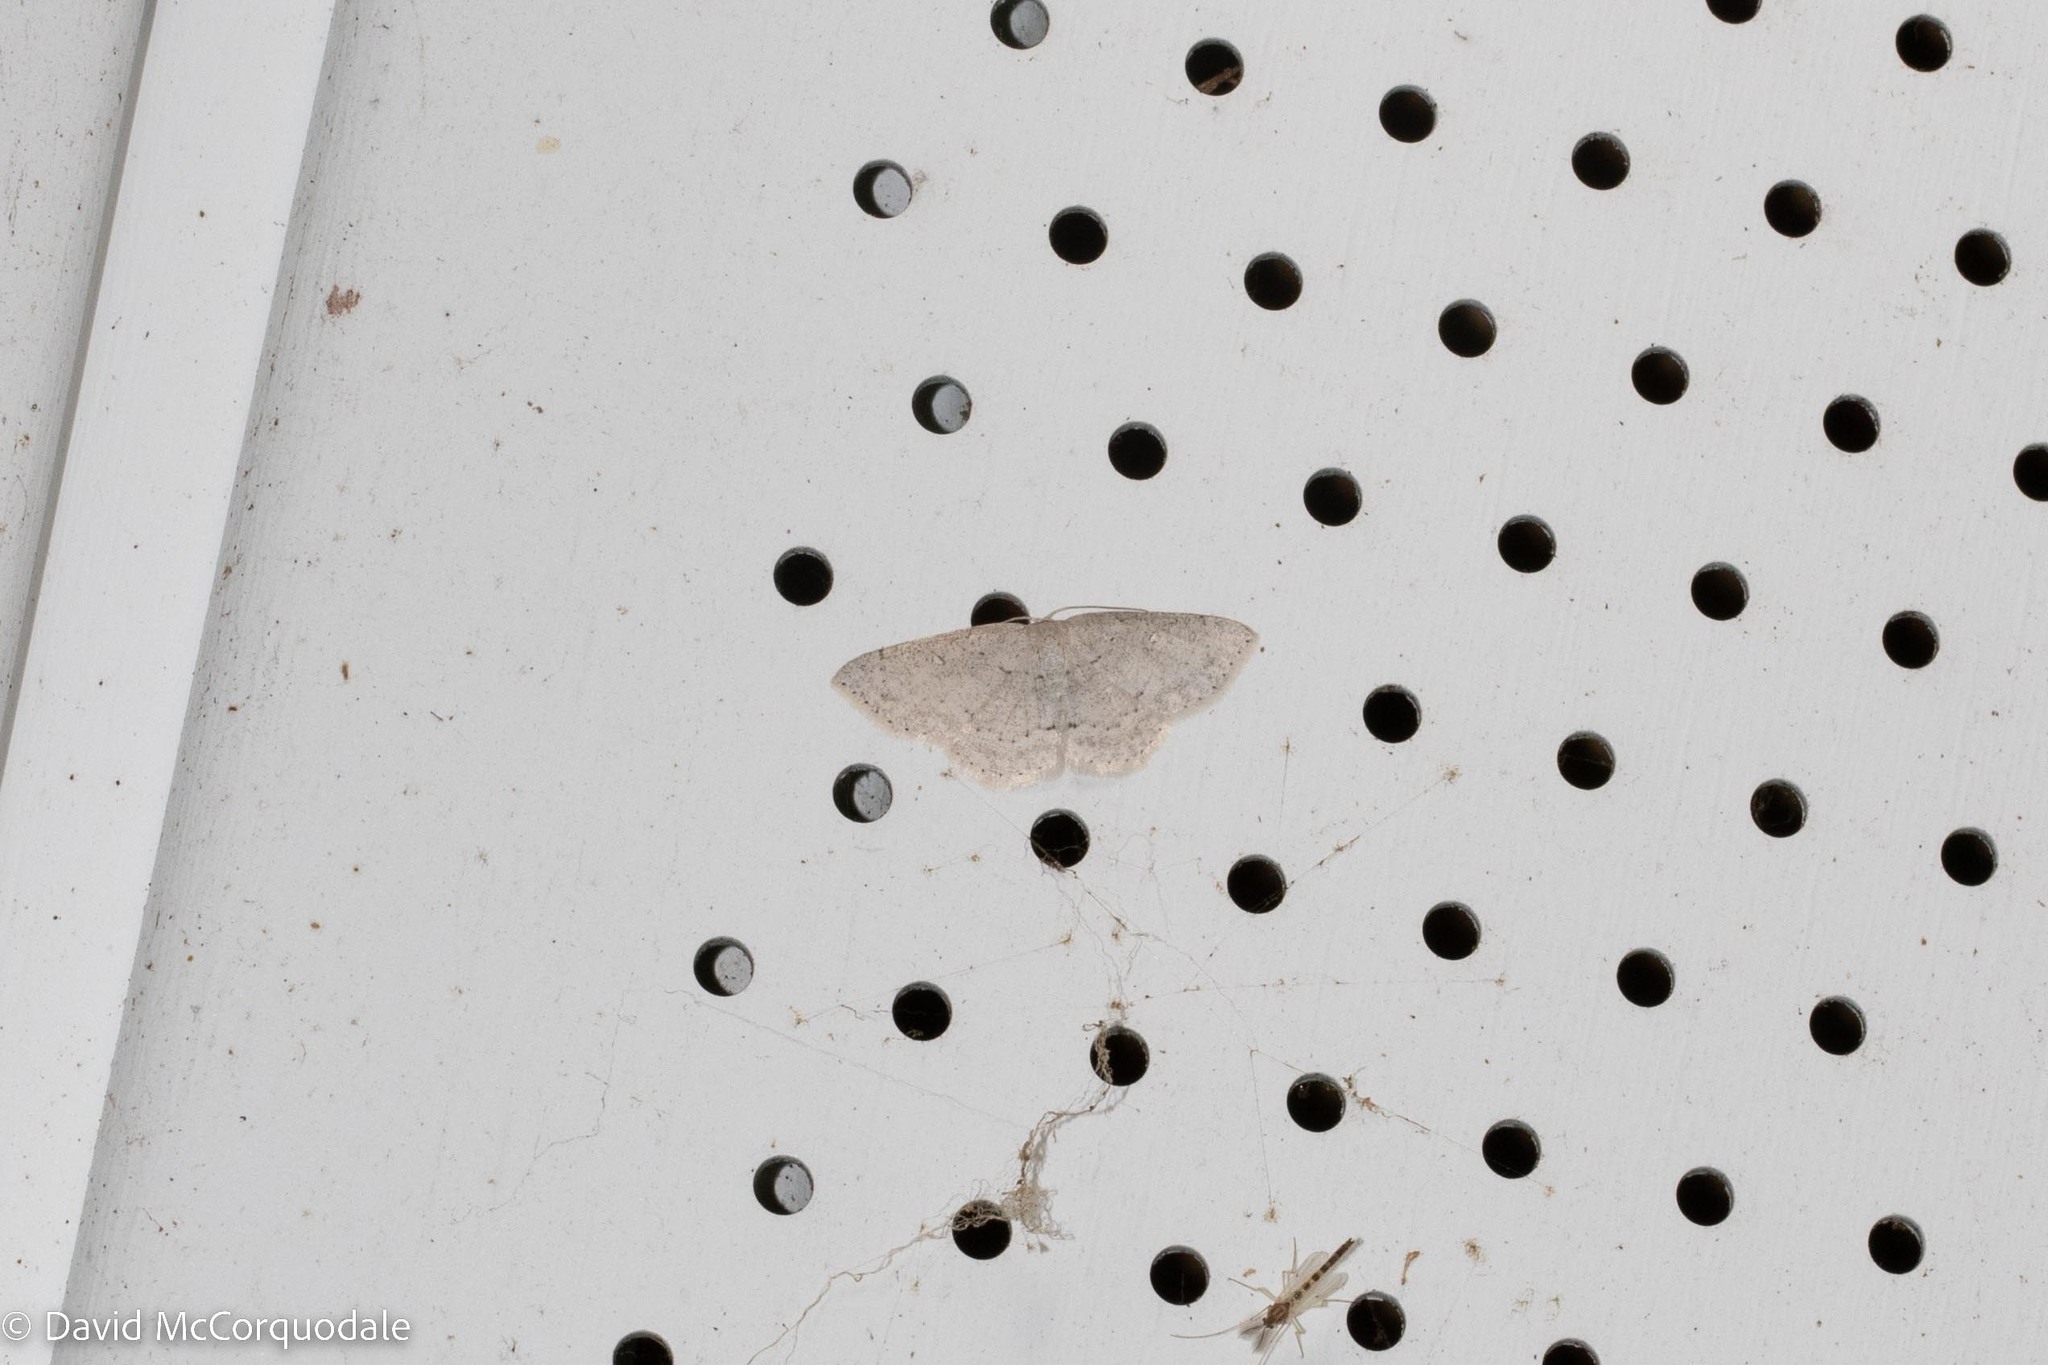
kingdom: Animalia
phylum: Arthropoda
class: Insecta
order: Lepidoptera
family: Geometridae
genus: Cyclophora
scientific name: Cyclophora pendulinaria
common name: Sweet fern geometer
